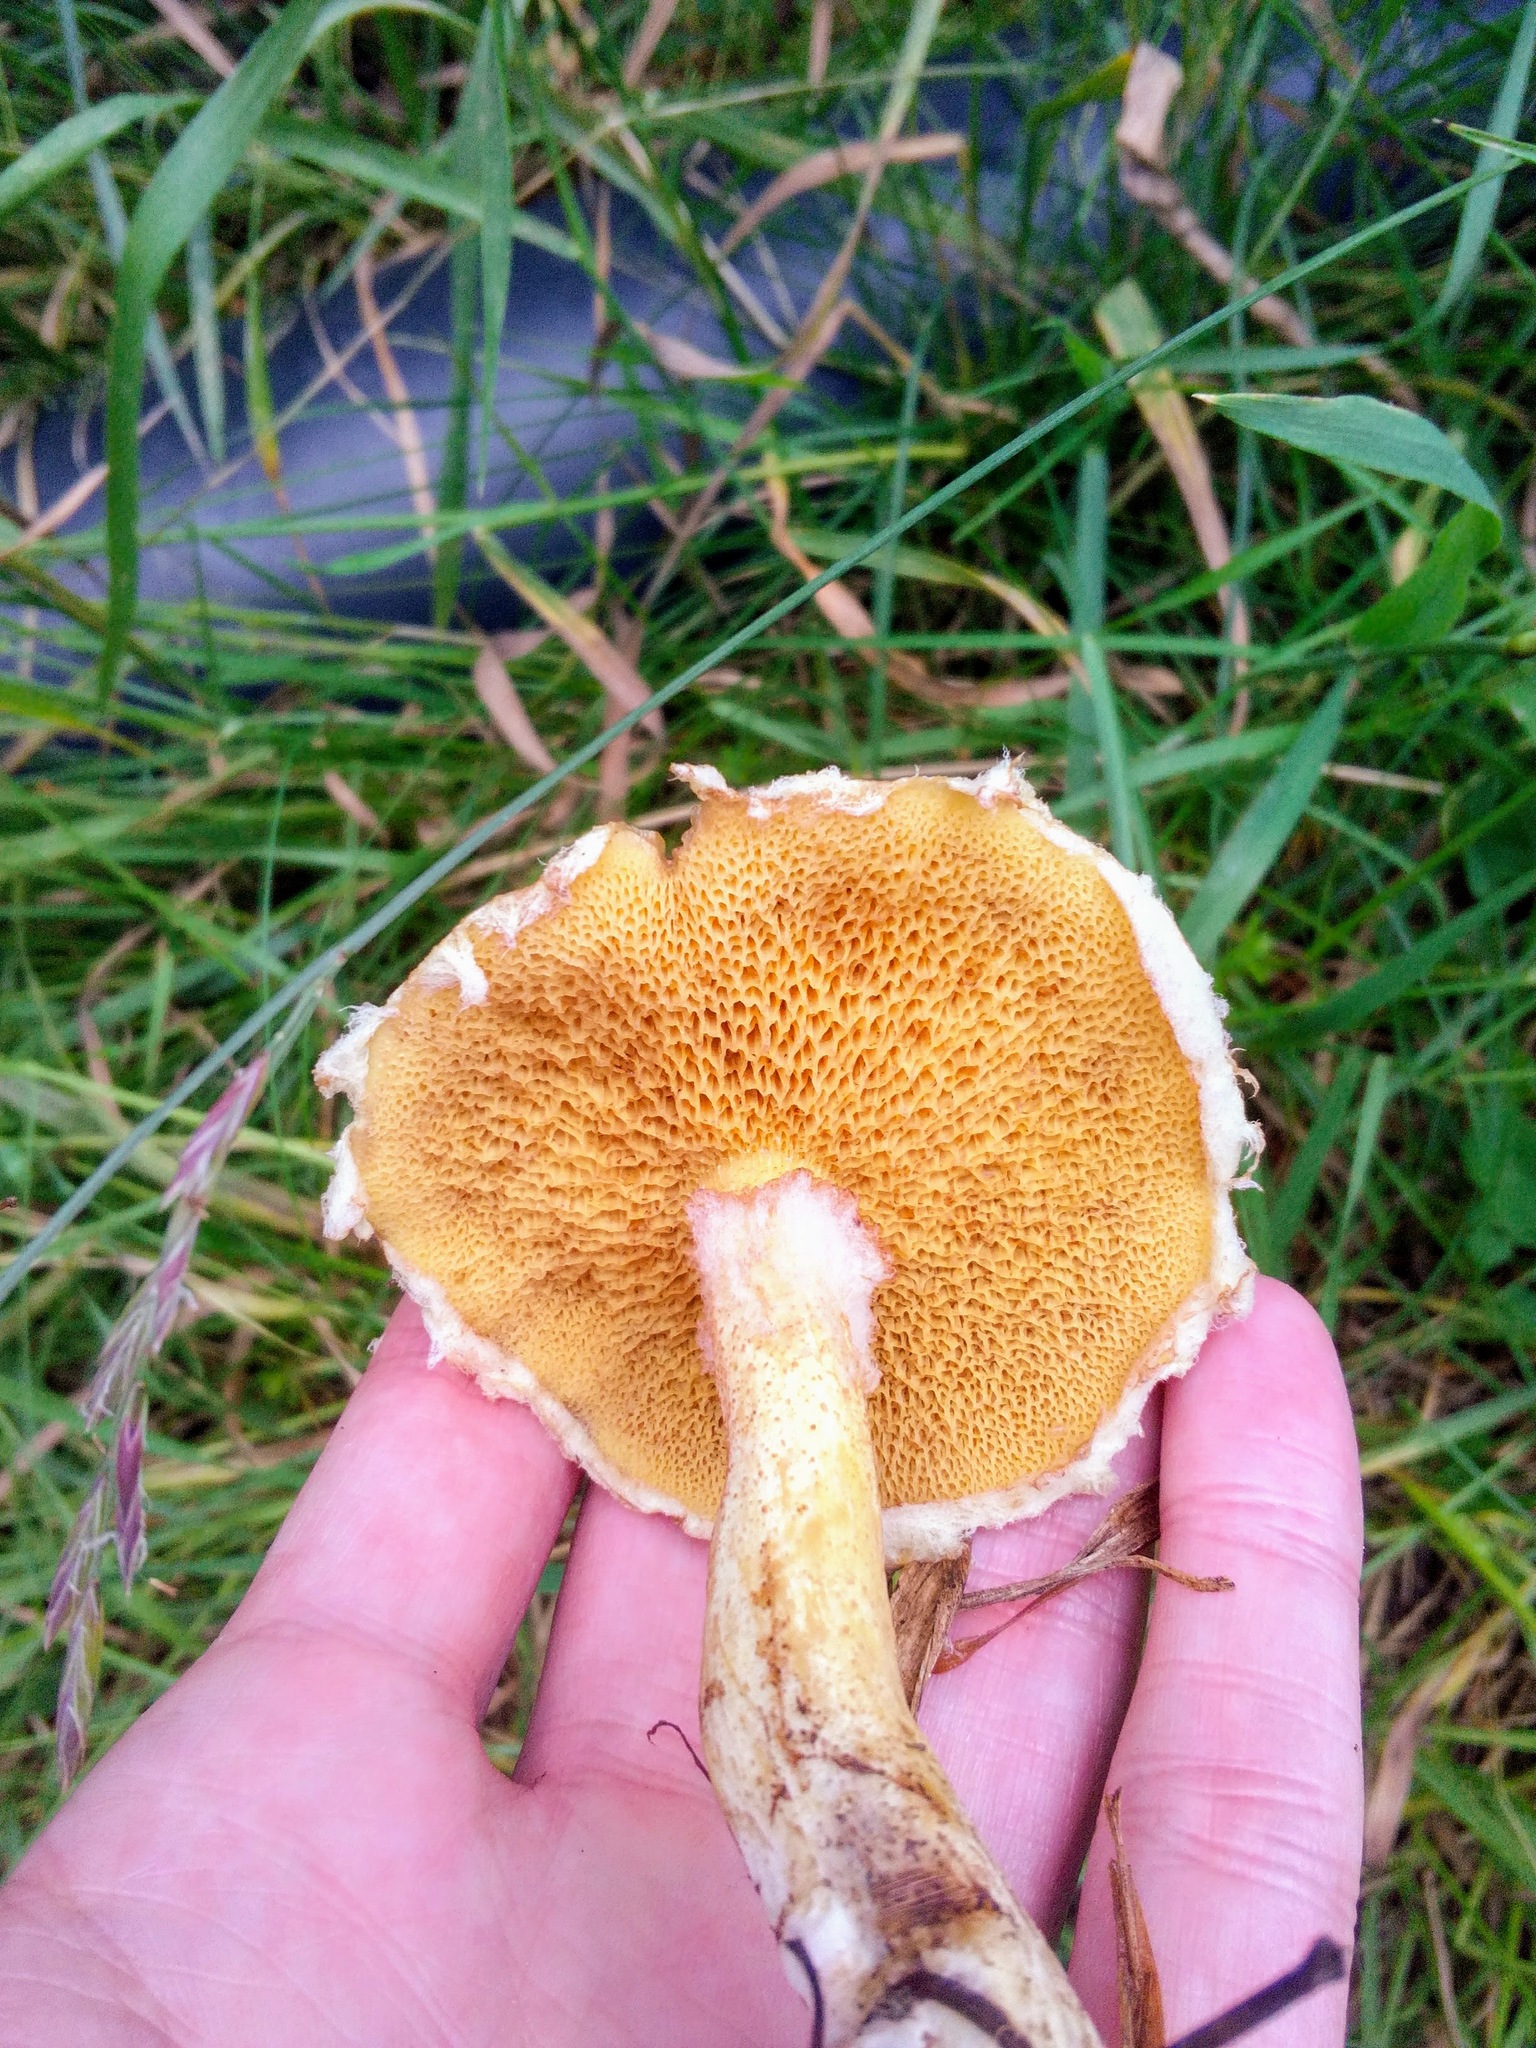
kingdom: Fungi
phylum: Basidiomycota
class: Agaricomycetes
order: Boletales
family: Suillaceae
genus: Suillus
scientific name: Suillus americanus
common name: Chicken fat mushroom
